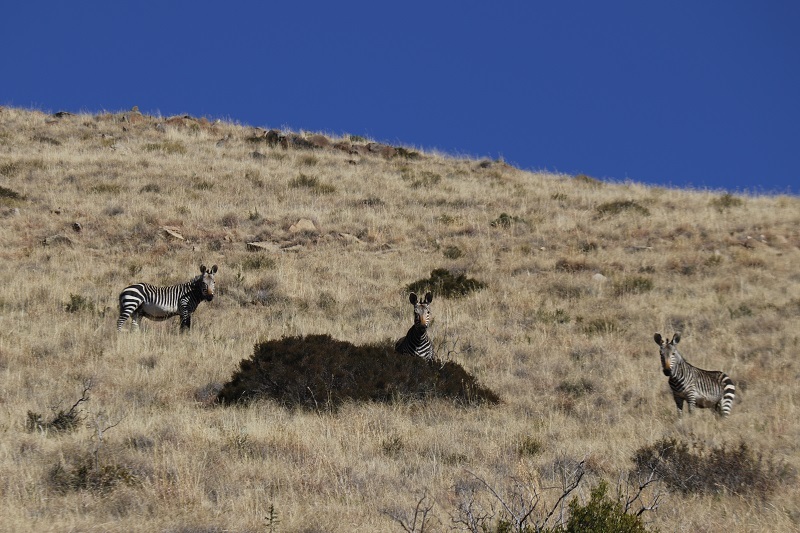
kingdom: Animalia
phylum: Chordata
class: Mammalia
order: Perissodactyla
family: Equidae
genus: Equus
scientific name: Equus zebra
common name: Mountain zebra
